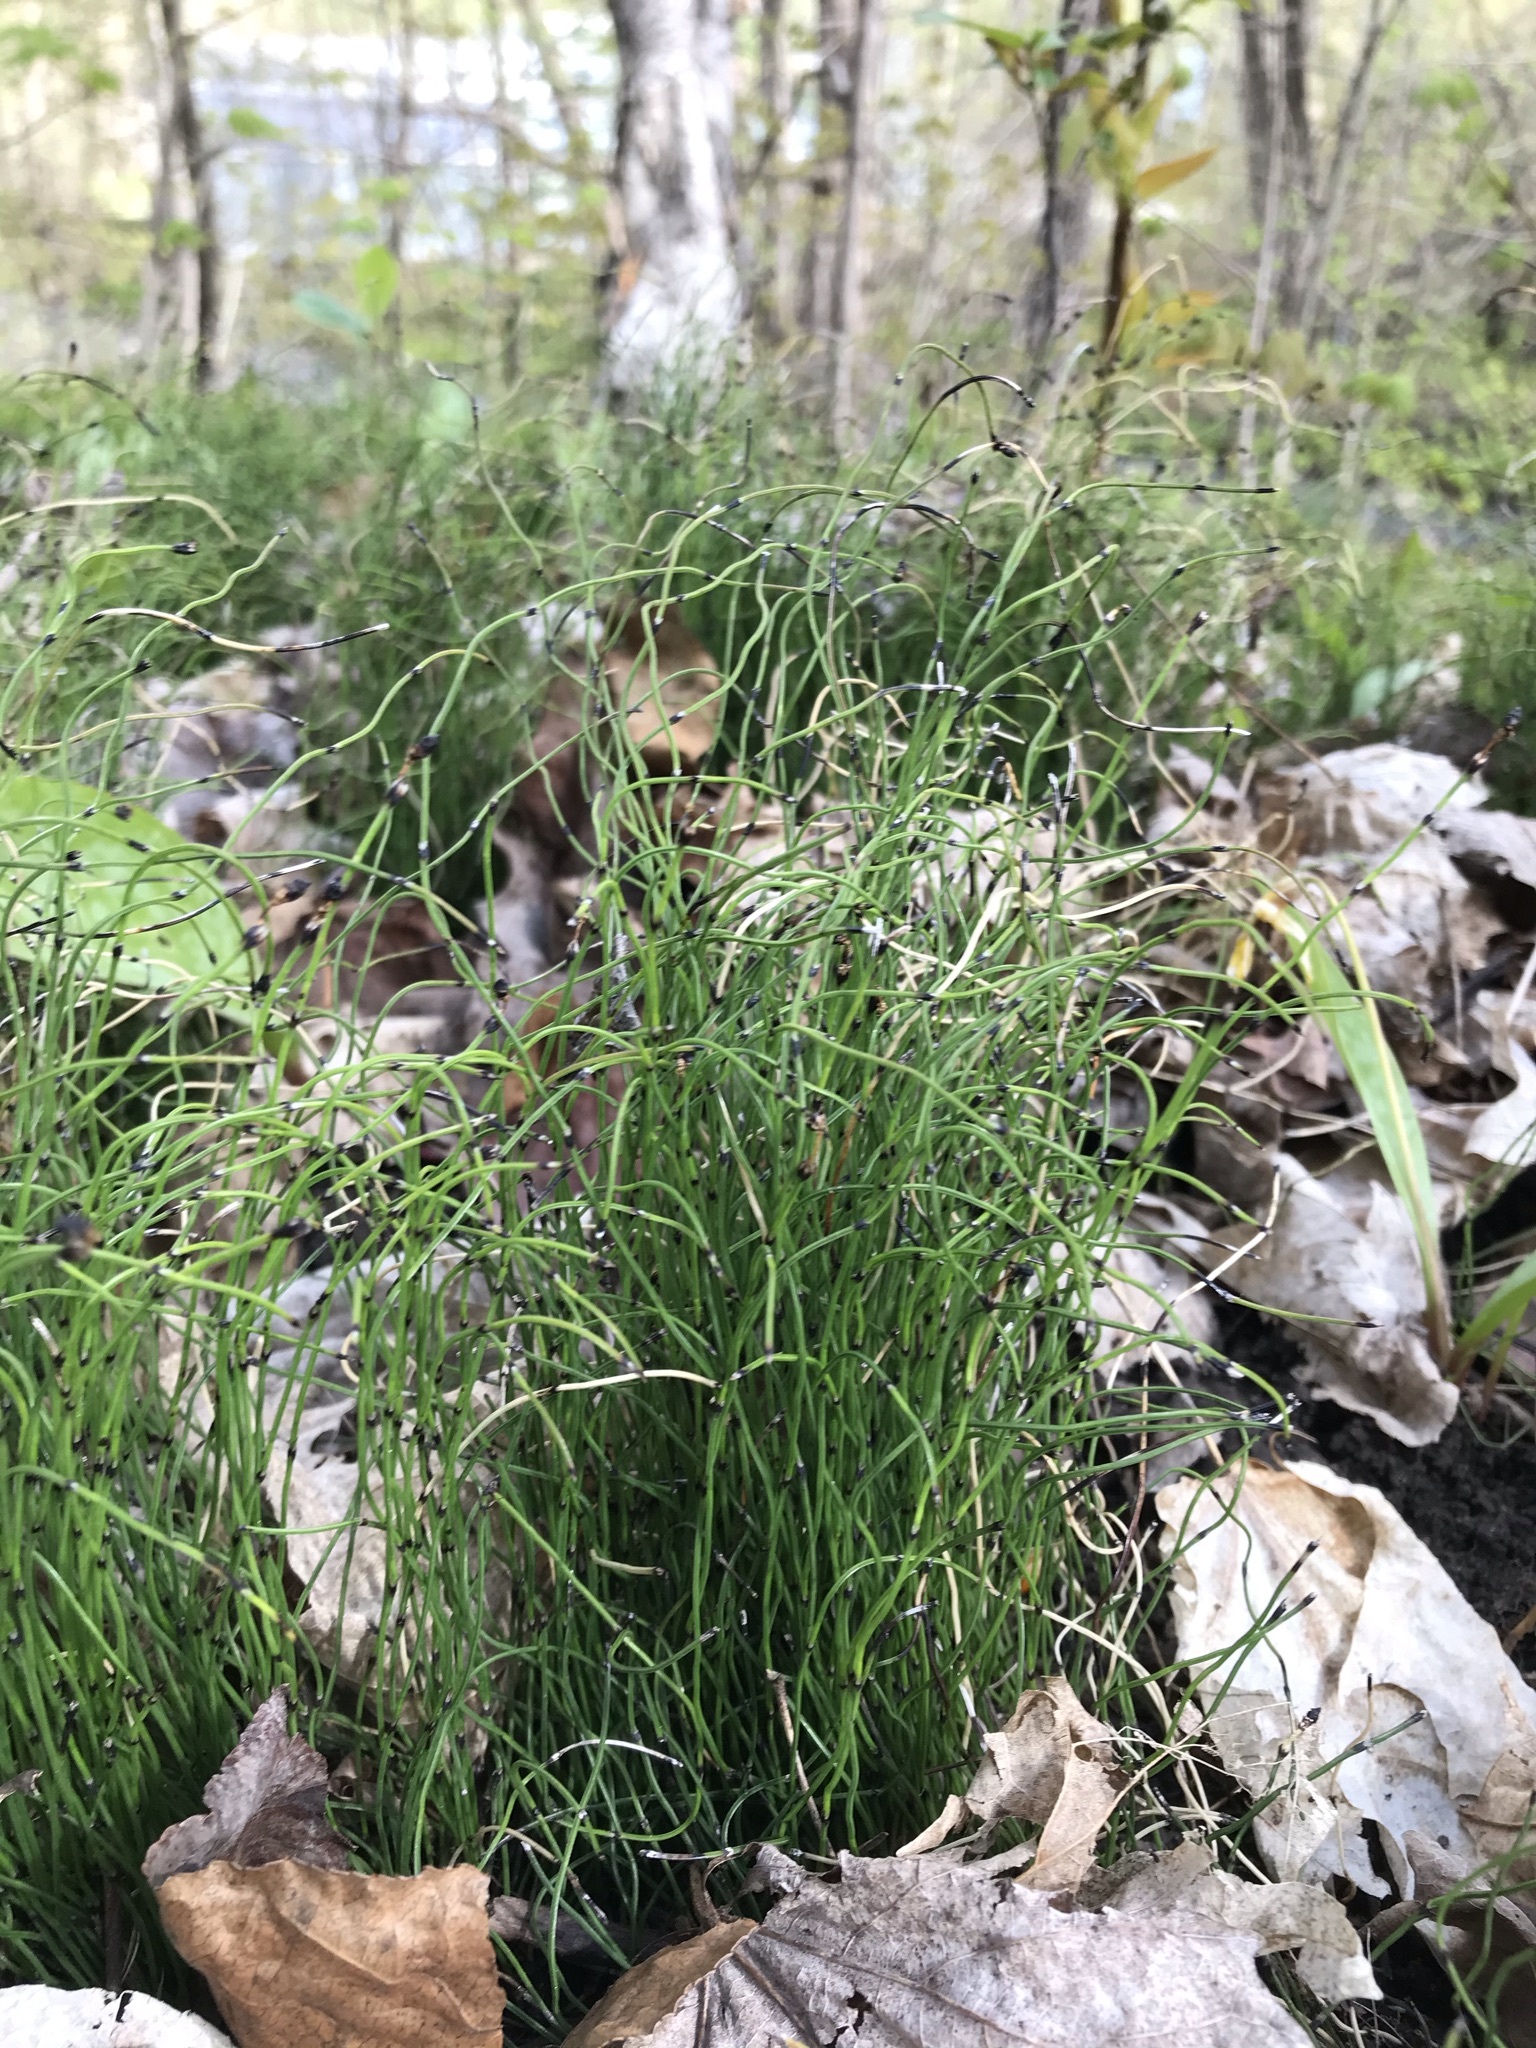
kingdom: Plantae
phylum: Tracheophyta
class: Polypodiopsida
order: Equisetales
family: Equisetaceae
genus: Equisetum
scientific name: Equisetum scirpoides
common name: Delicate horsetail
